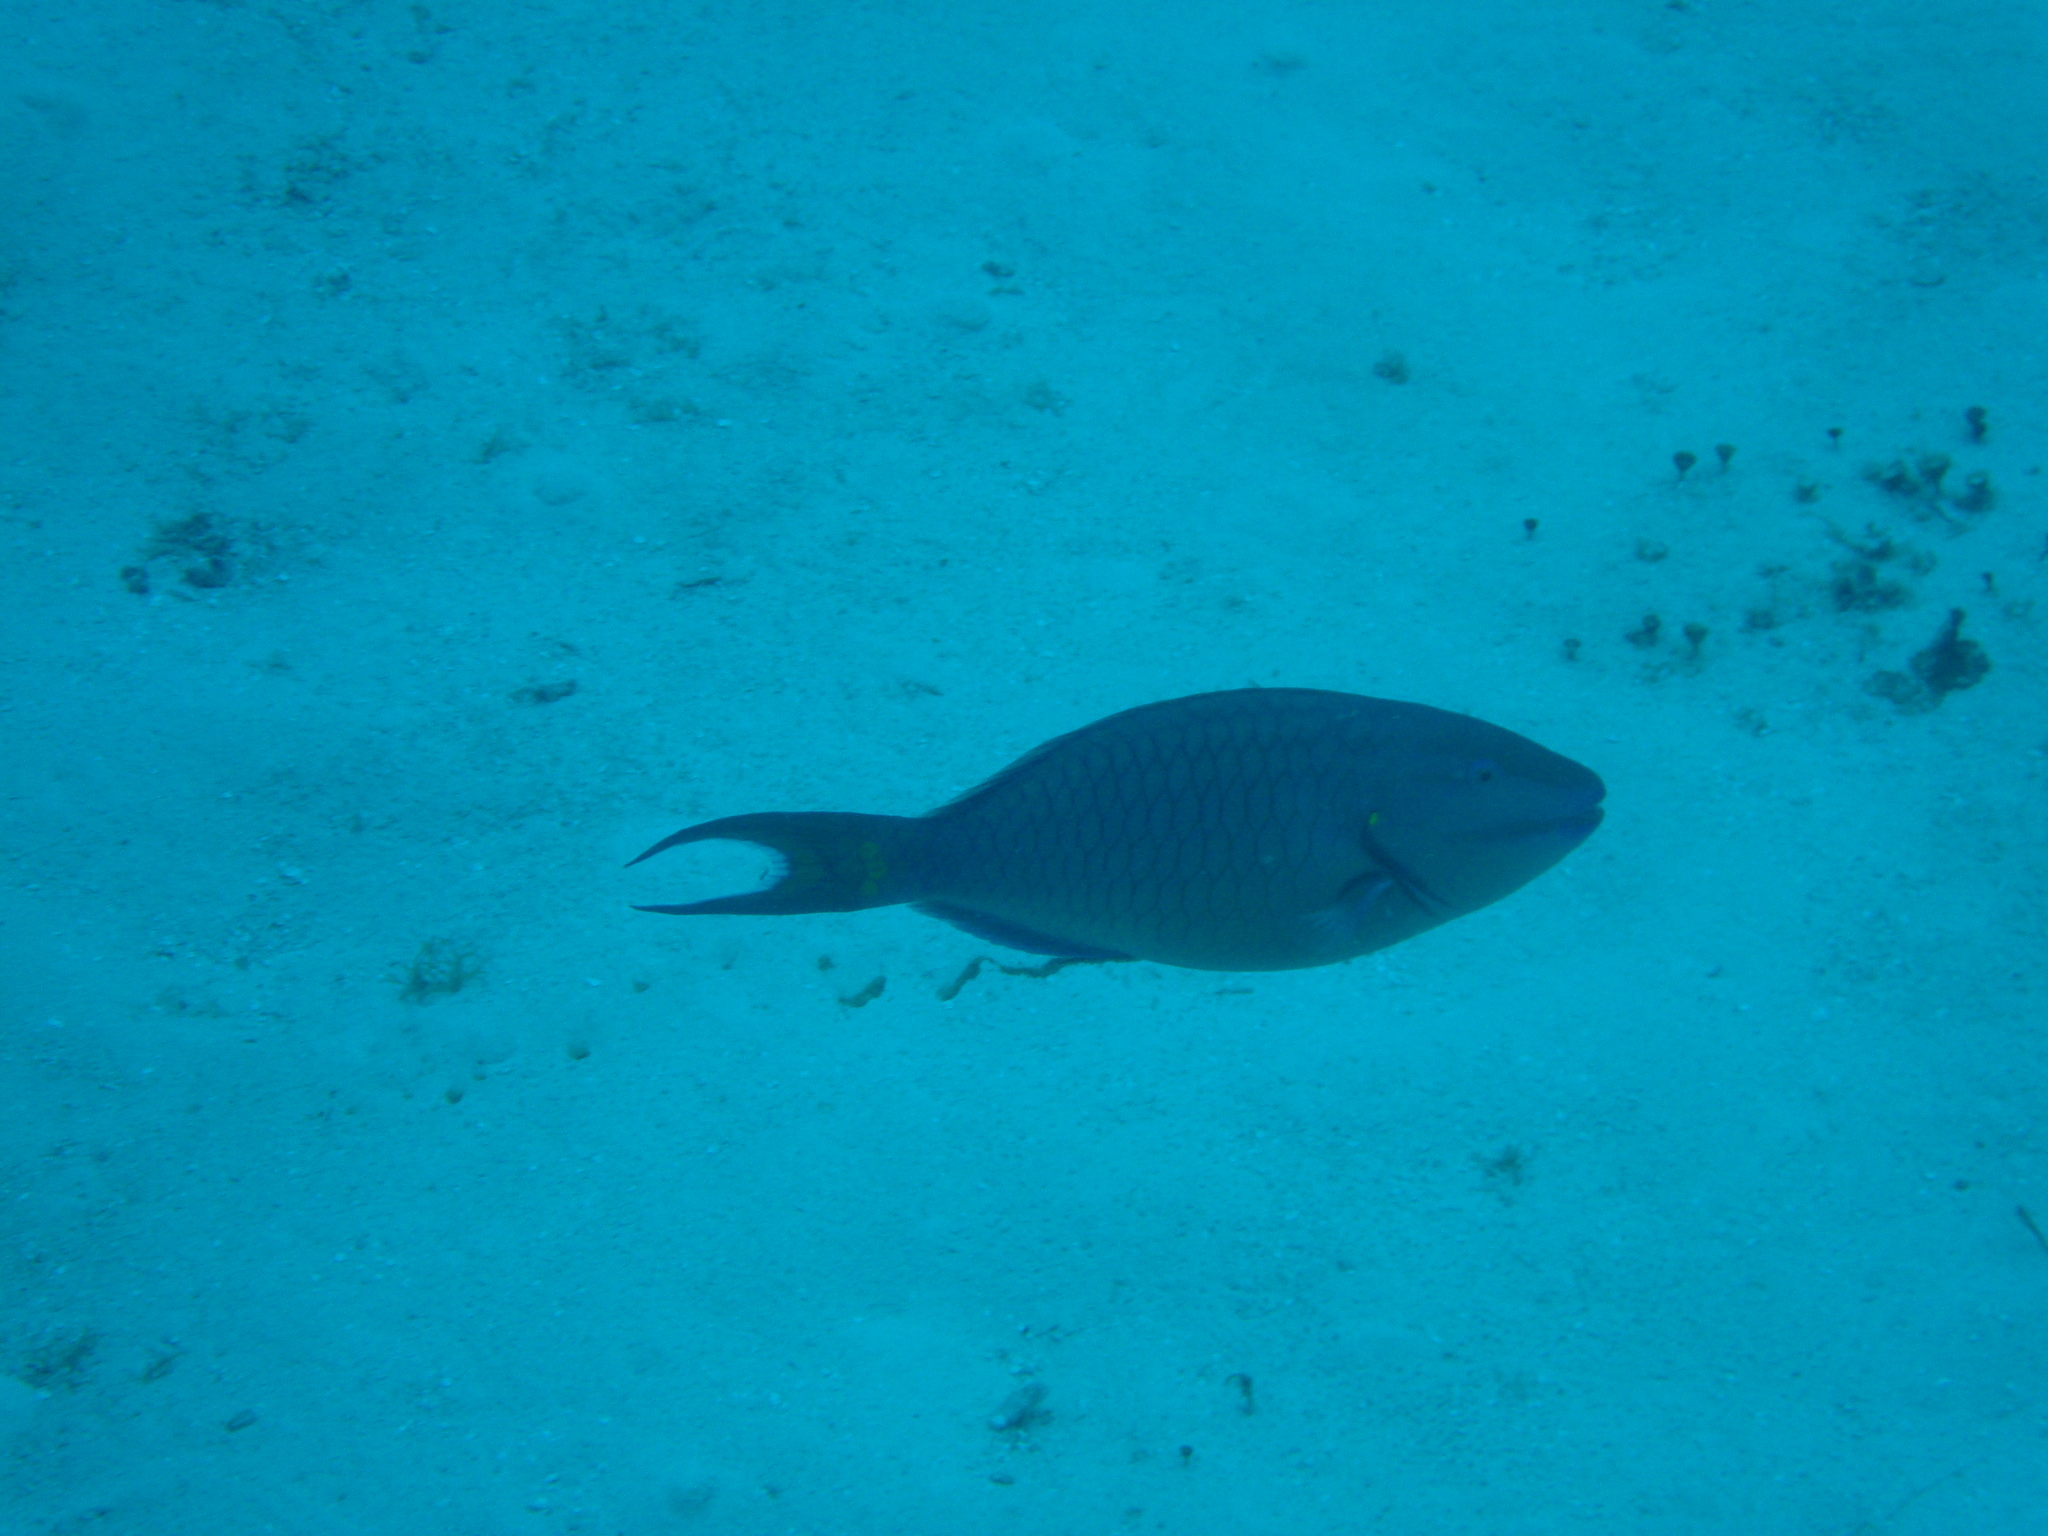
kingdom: Animalia
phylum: Chordata
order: Perciformes
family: Scaridae
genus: Sparisoma
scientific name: Sparisoma viride
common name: Stoplight parrotfish
